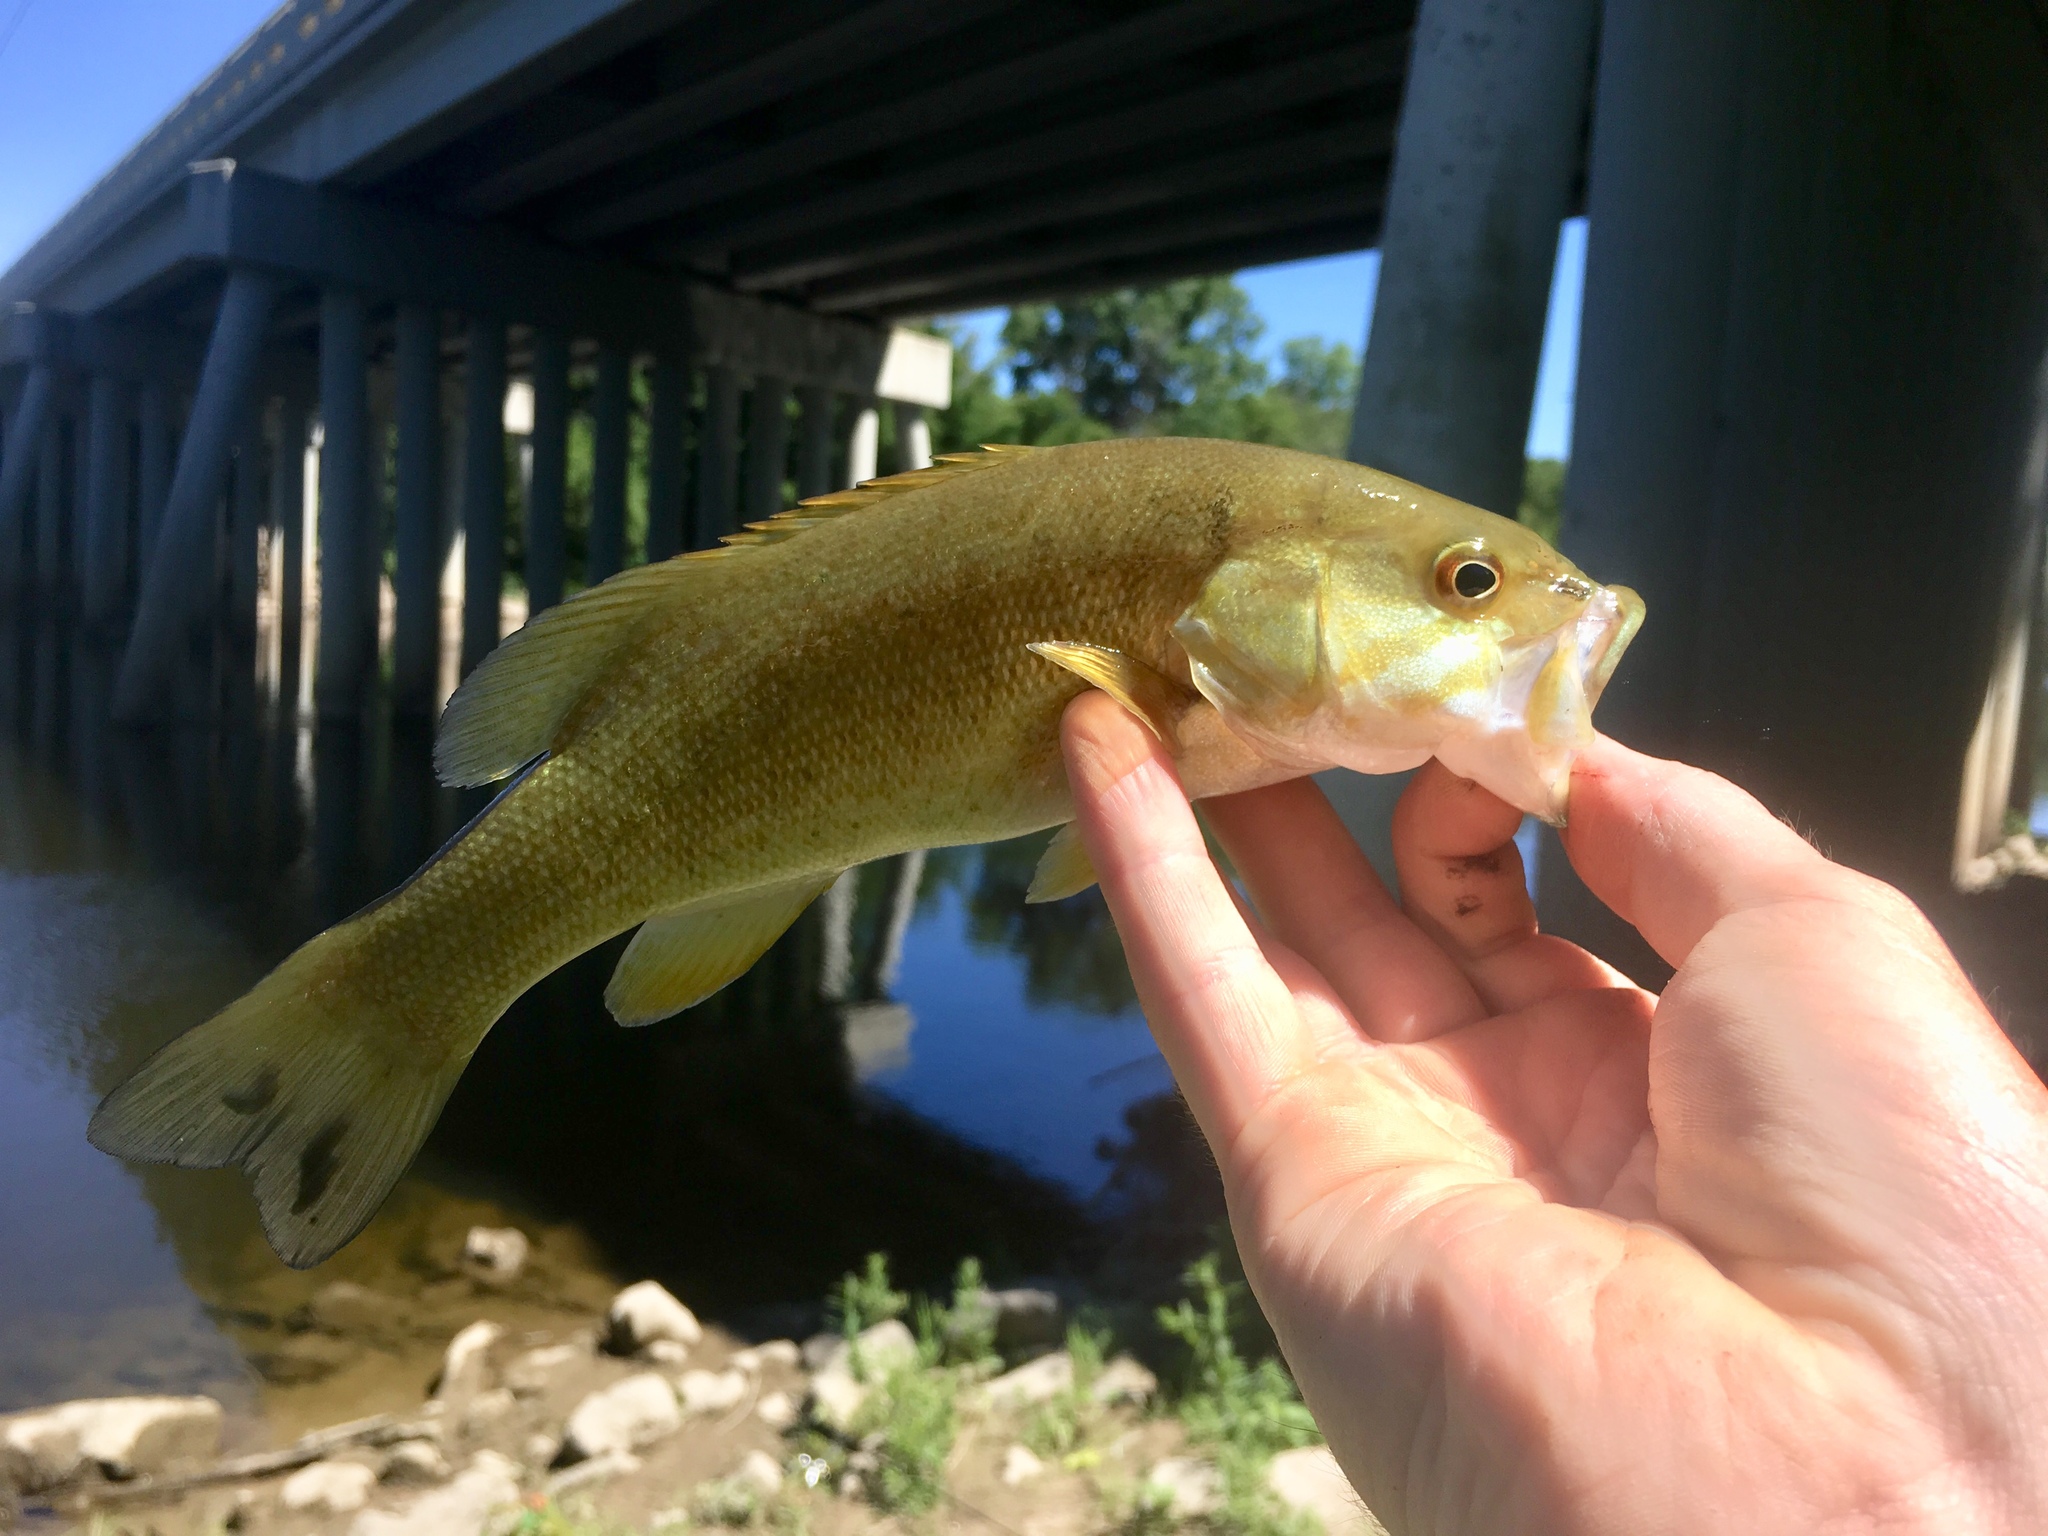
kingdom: Animalia
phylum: Chordata
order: Perciformes
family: Centrarchidae
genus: Micropterus
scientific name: Micropterus dolomieu
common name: Smallmouth bass
